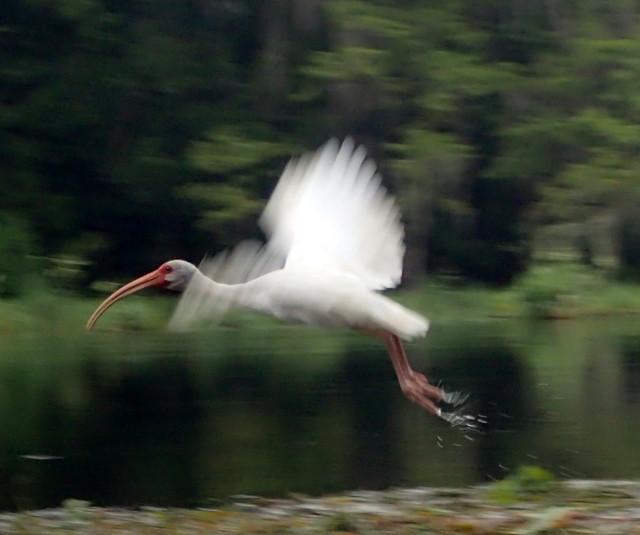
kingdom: Animalia
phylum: Chordata
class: Aves
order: Pelecaniformes
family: Threskiornithidae
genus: Eudocimus
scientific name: Eudocimus albus
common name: White ibis
